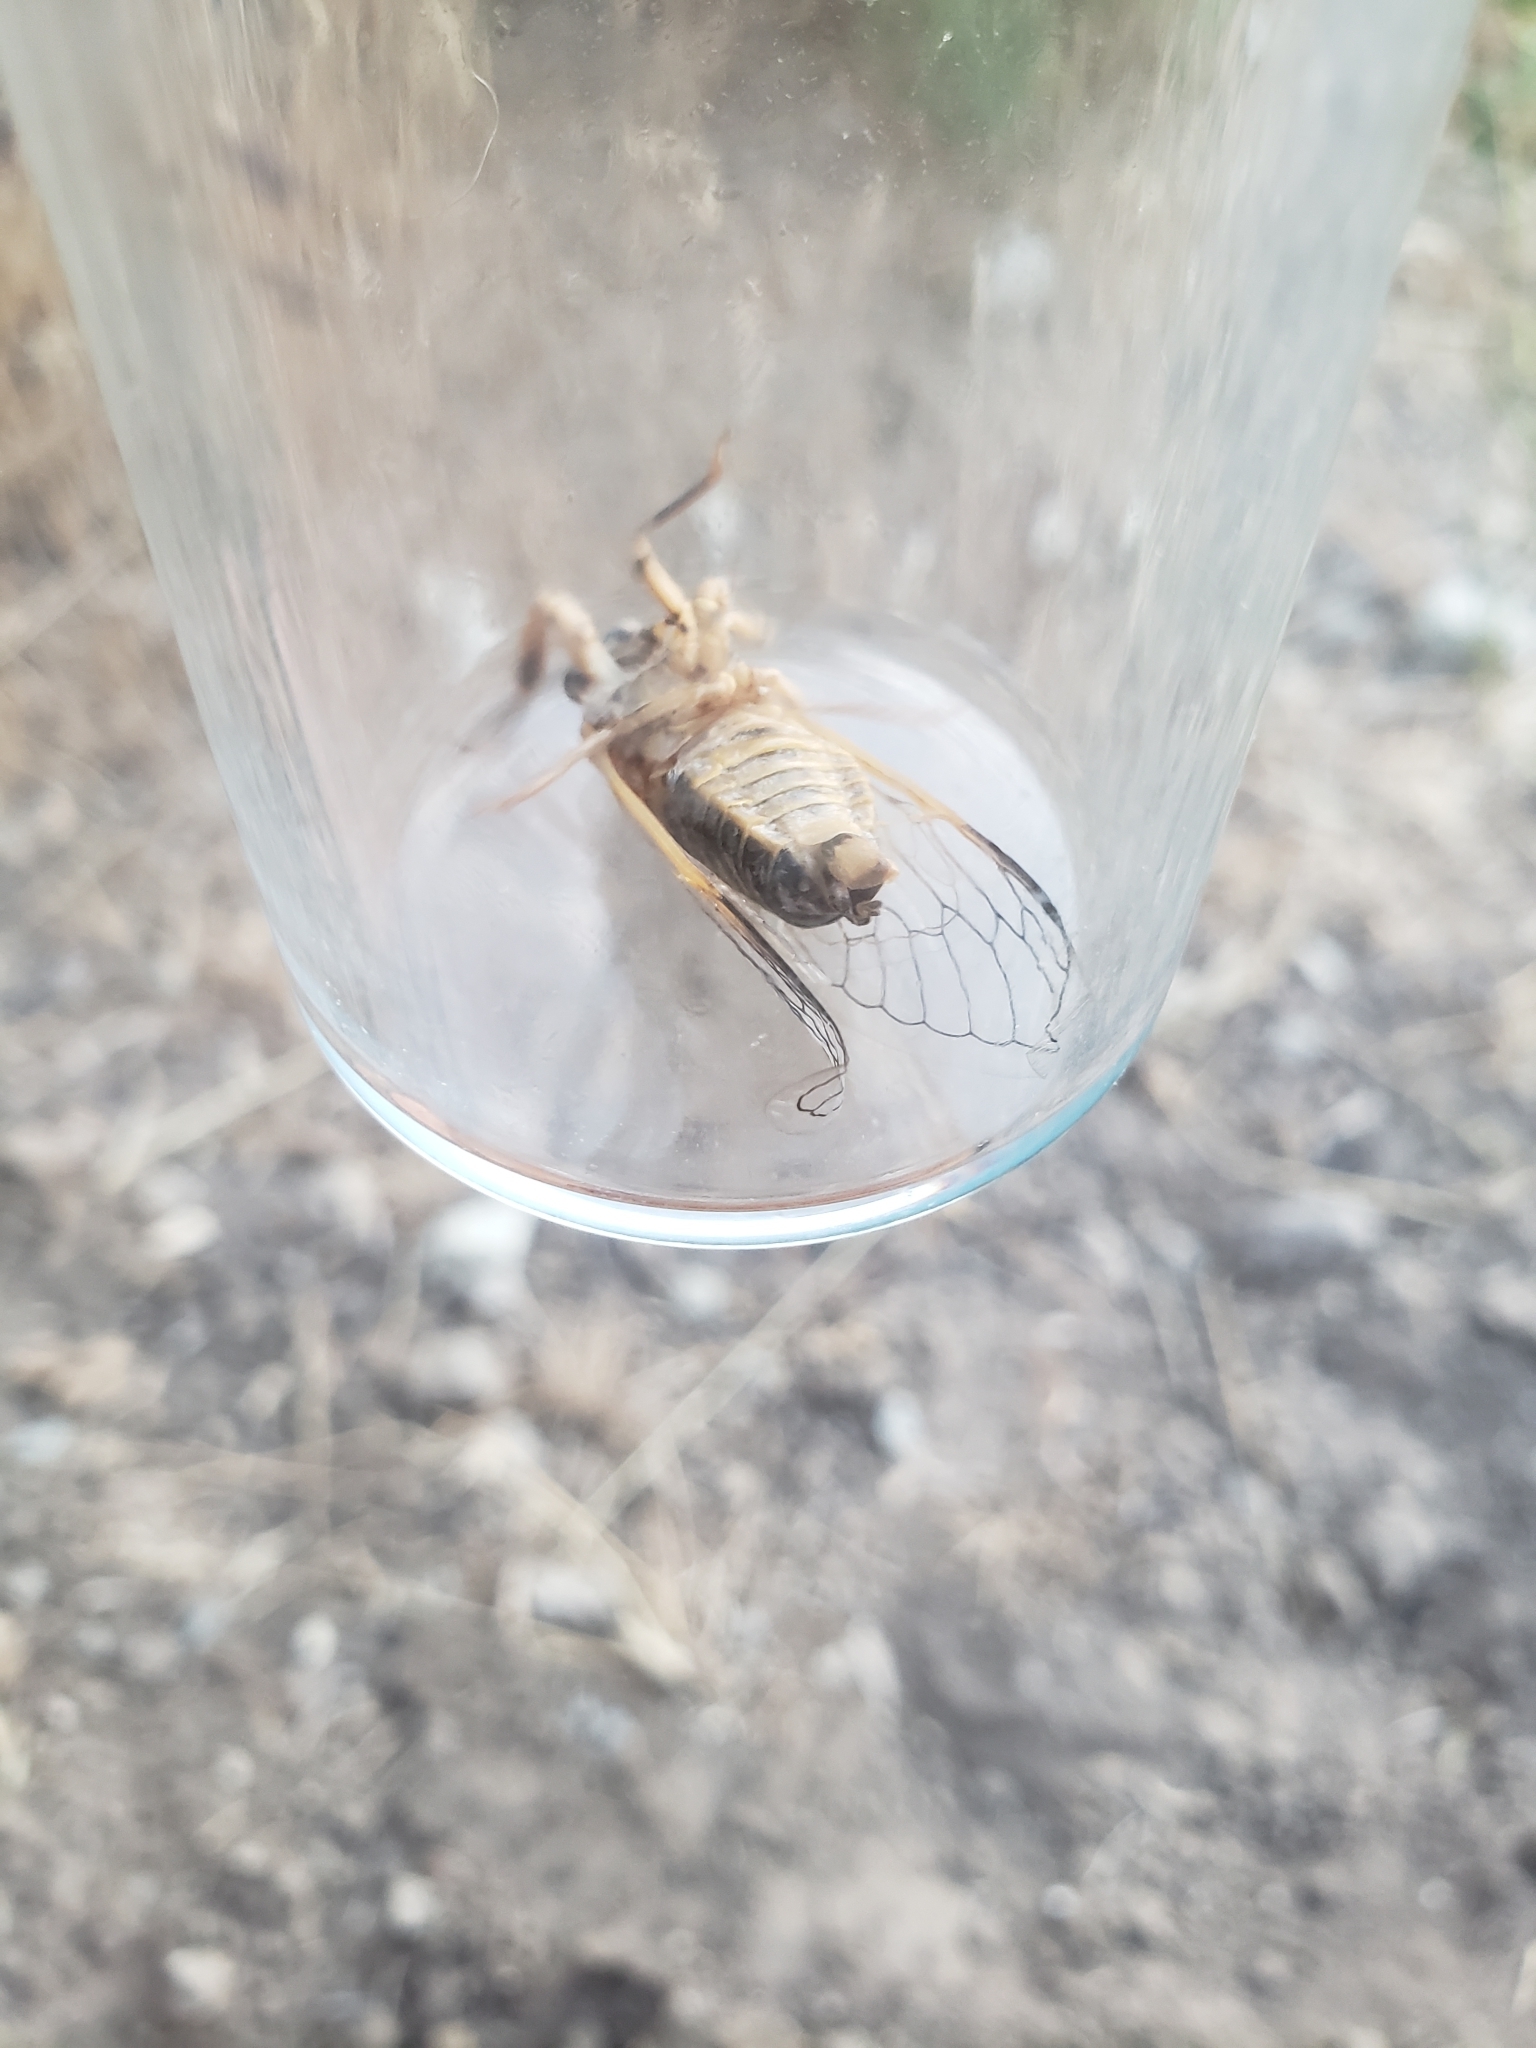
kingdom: Animalia
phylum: Arthropoda
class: Insecta
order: Hemiptera
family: Cicadidae
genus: Tibicinoides
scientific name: Tibicinoides
